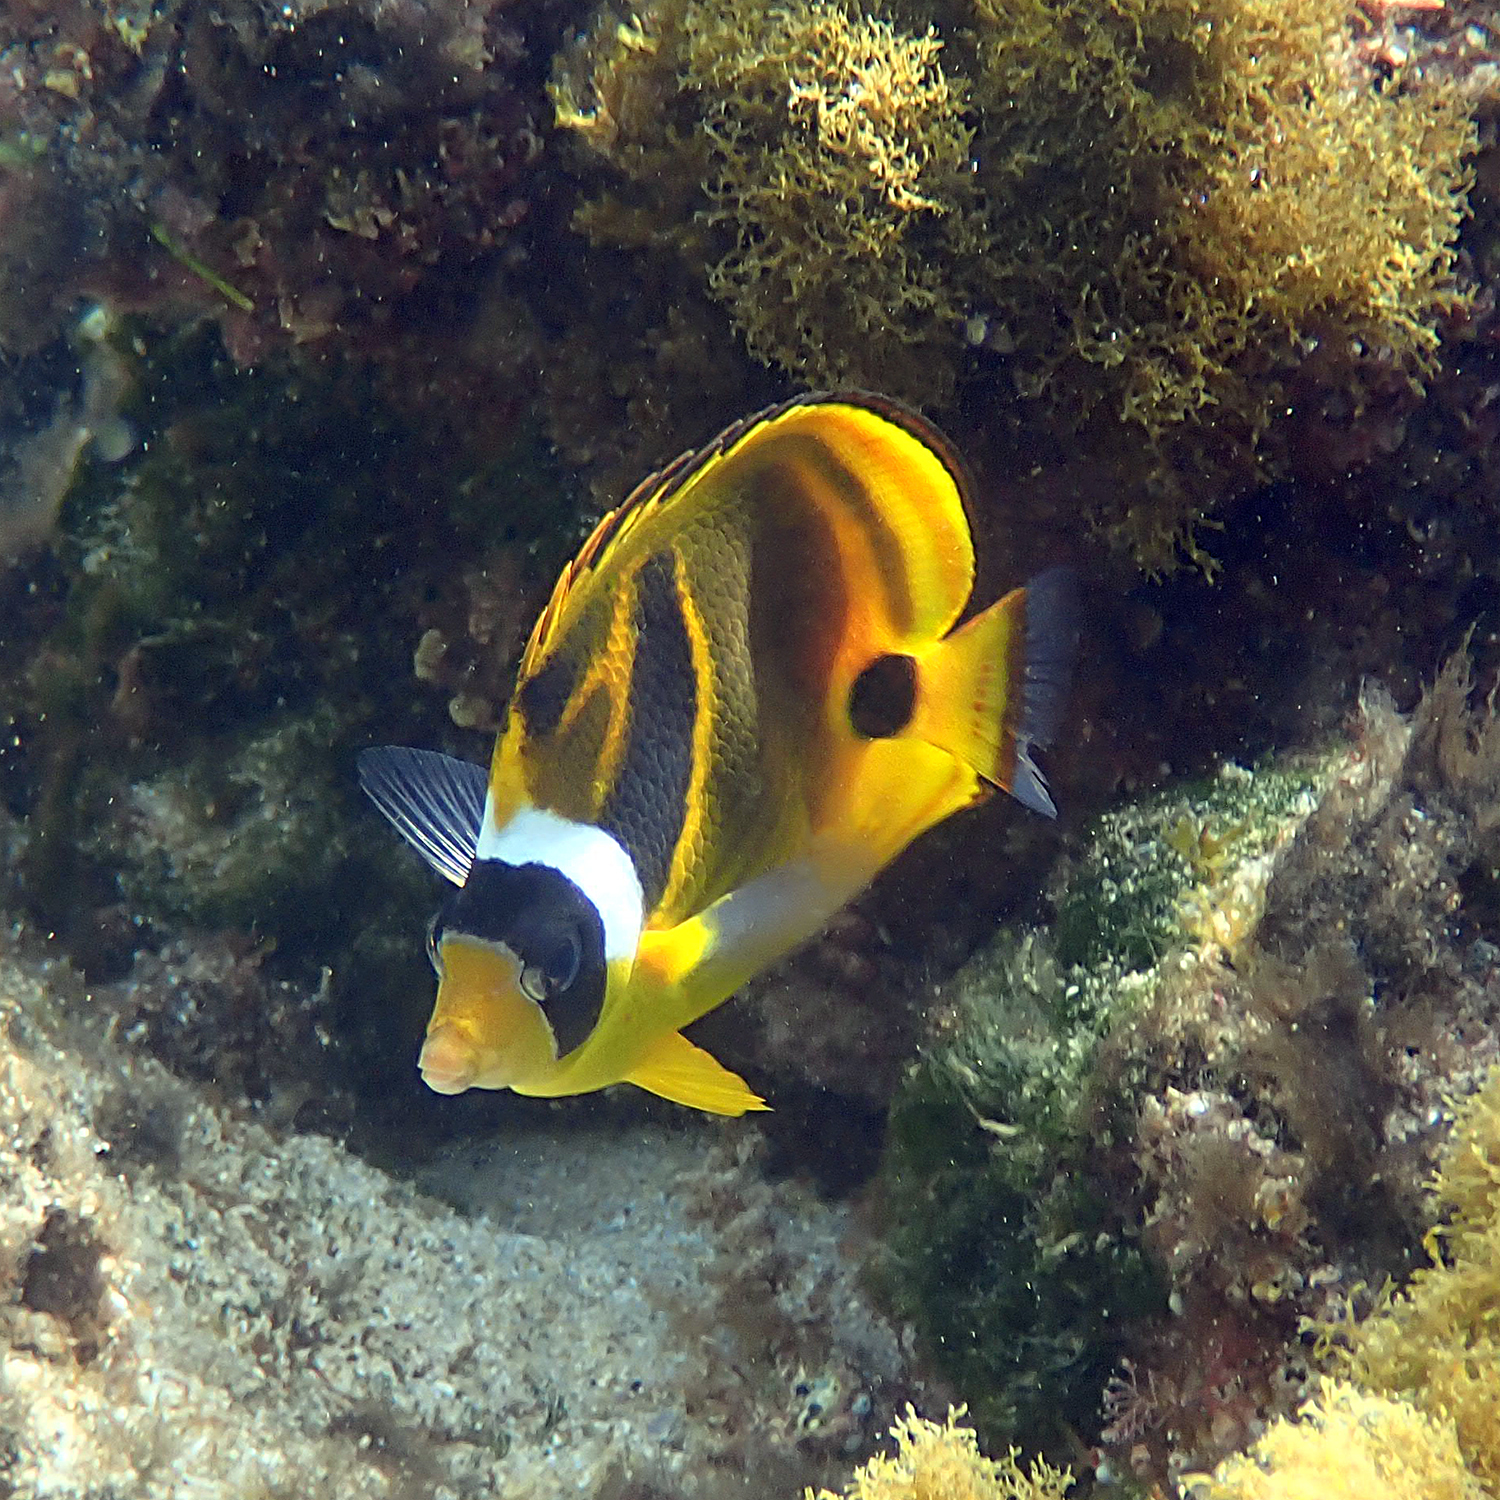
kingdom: Animalia
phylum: Chordata
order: Perciformes
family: Chaetodontidae
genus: Chaetodon
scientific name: Chaetodon lunula
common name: Raccoon butterflyfish
